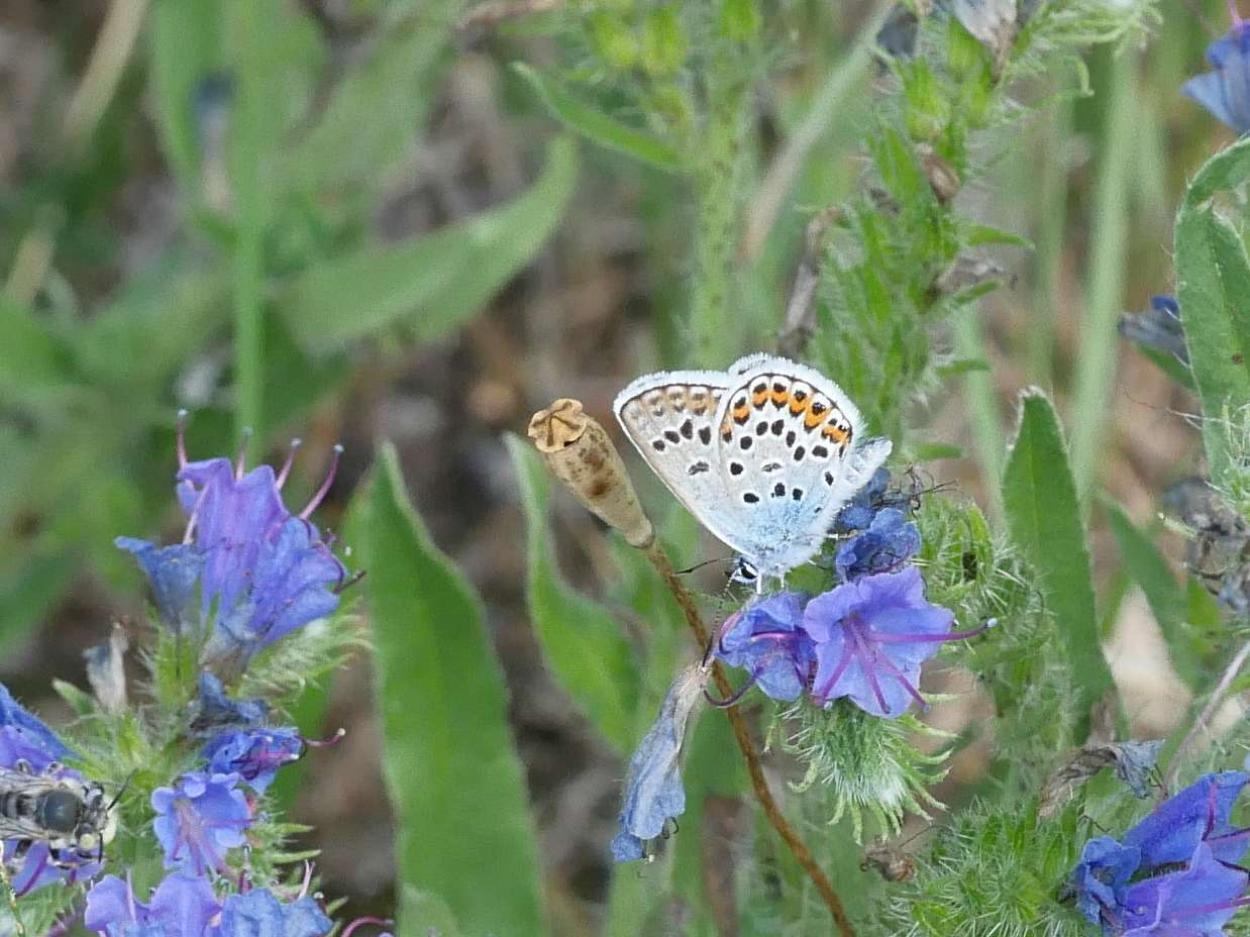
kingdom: Animalia
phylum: Arthropoda
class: Insecta
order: Lepidoptera
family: Lycaenidae
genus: Plebejus
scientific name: Plebejus argus
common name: Silver-studded blue
